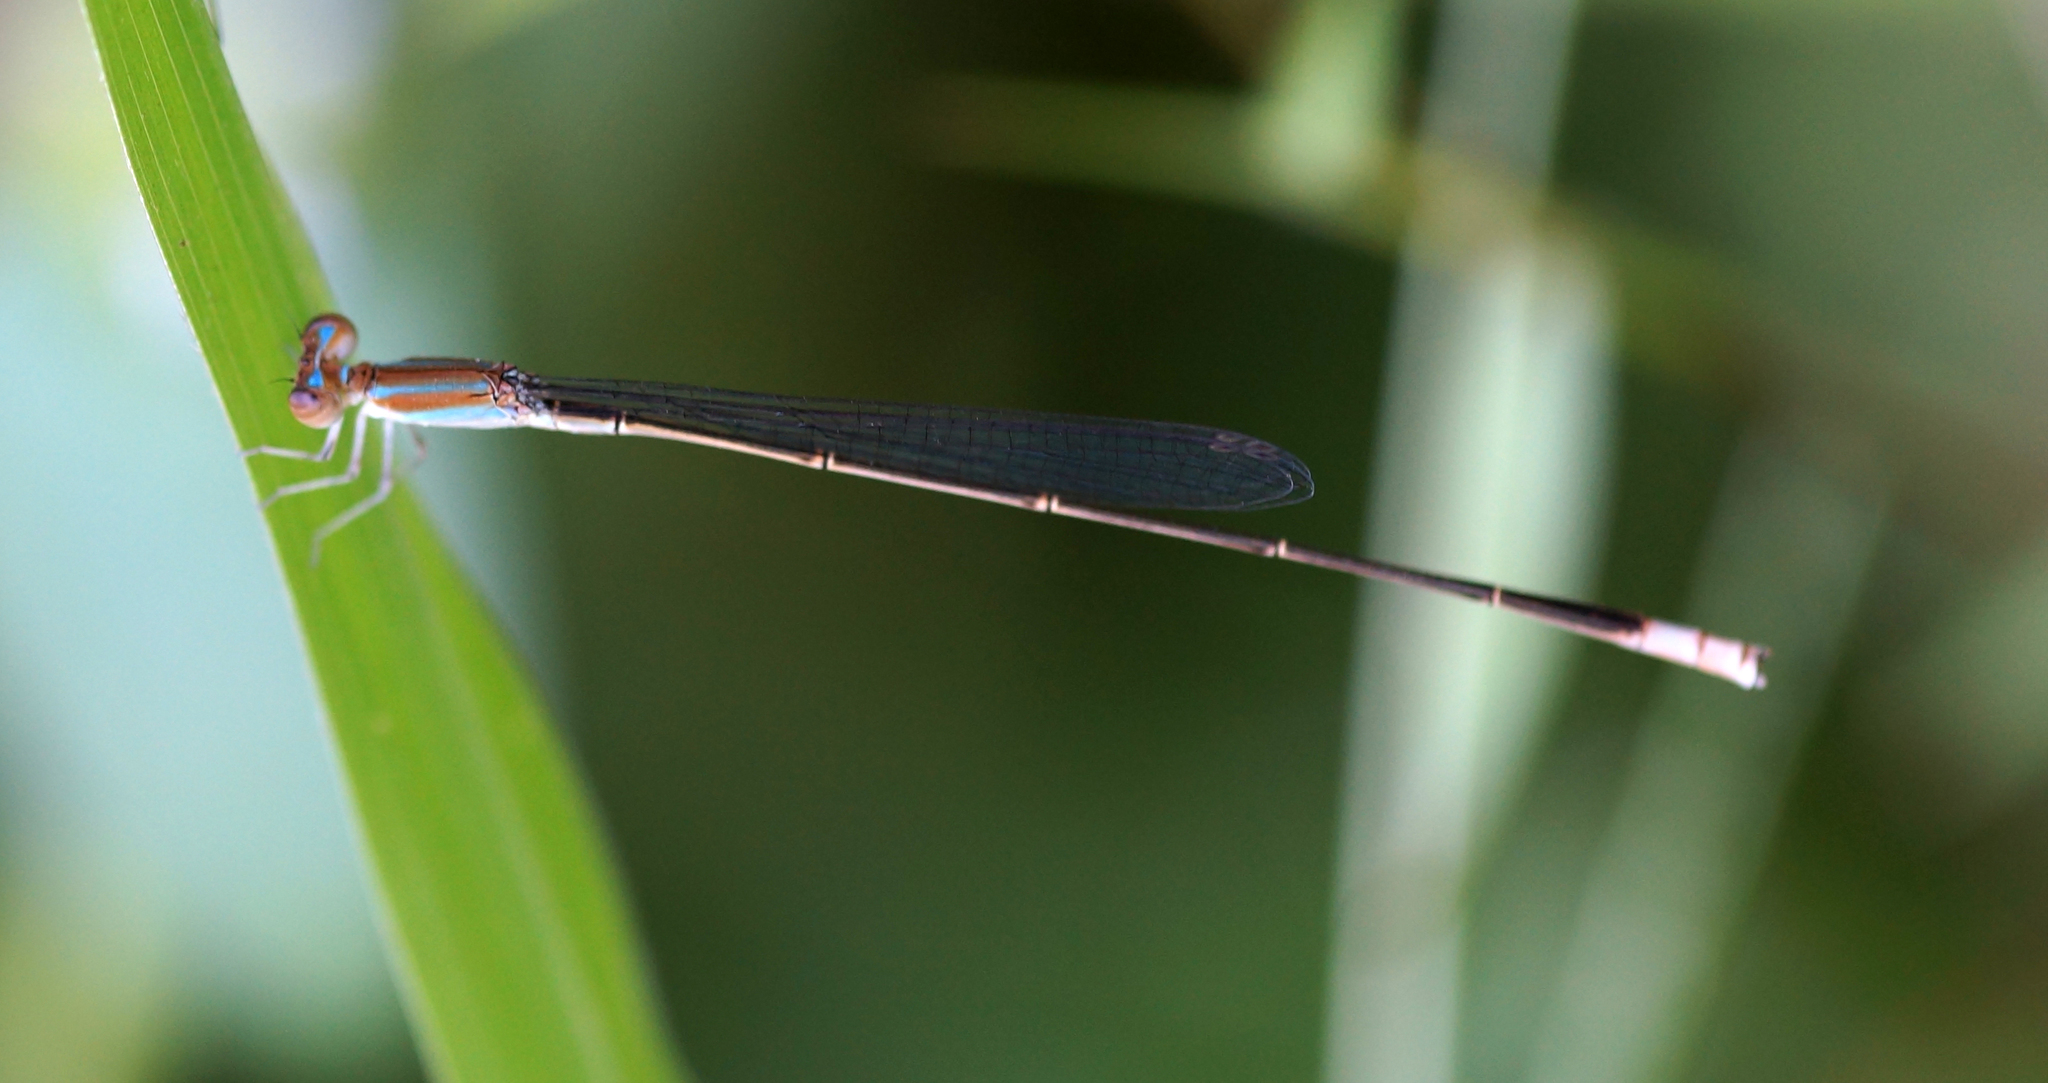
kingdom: Animalia
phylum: Arthropoda
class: Insecta
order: Odonata
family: Coenagrionidae
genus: Aciagrion
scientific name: Aciagrion pallidum
